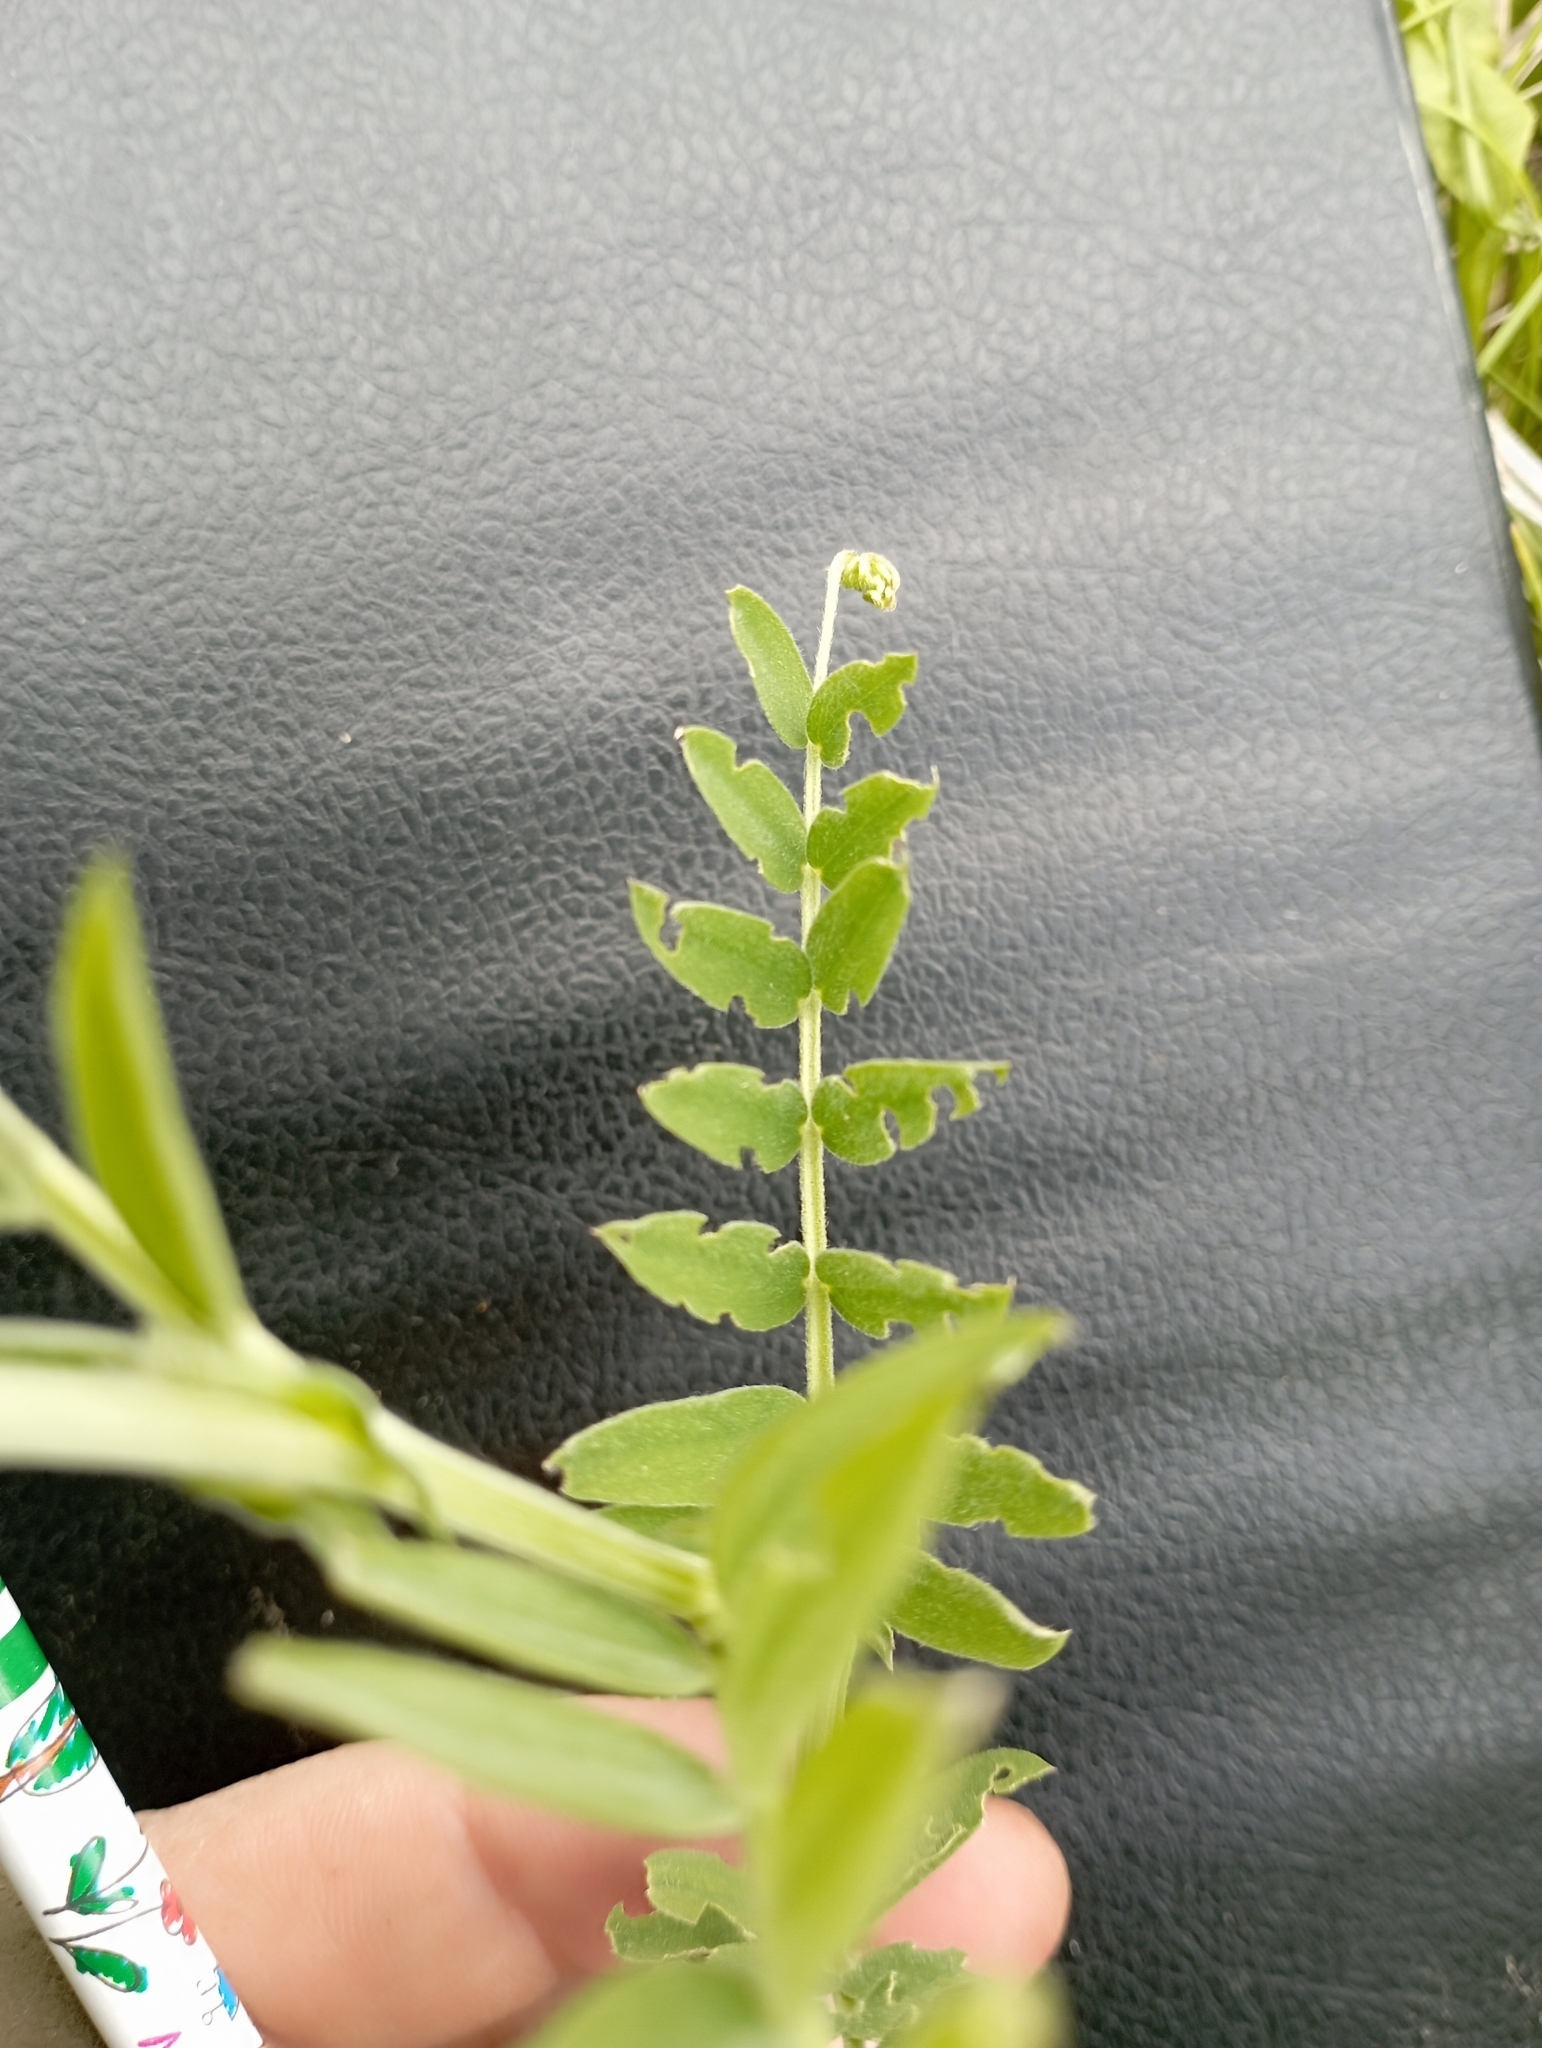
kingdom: Plantae
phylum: Tracheophyta
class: Magnoliopsida
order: Fabales
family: Fabaceae
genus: Vicia
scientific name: Vicia cracca
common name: Bird vetch
